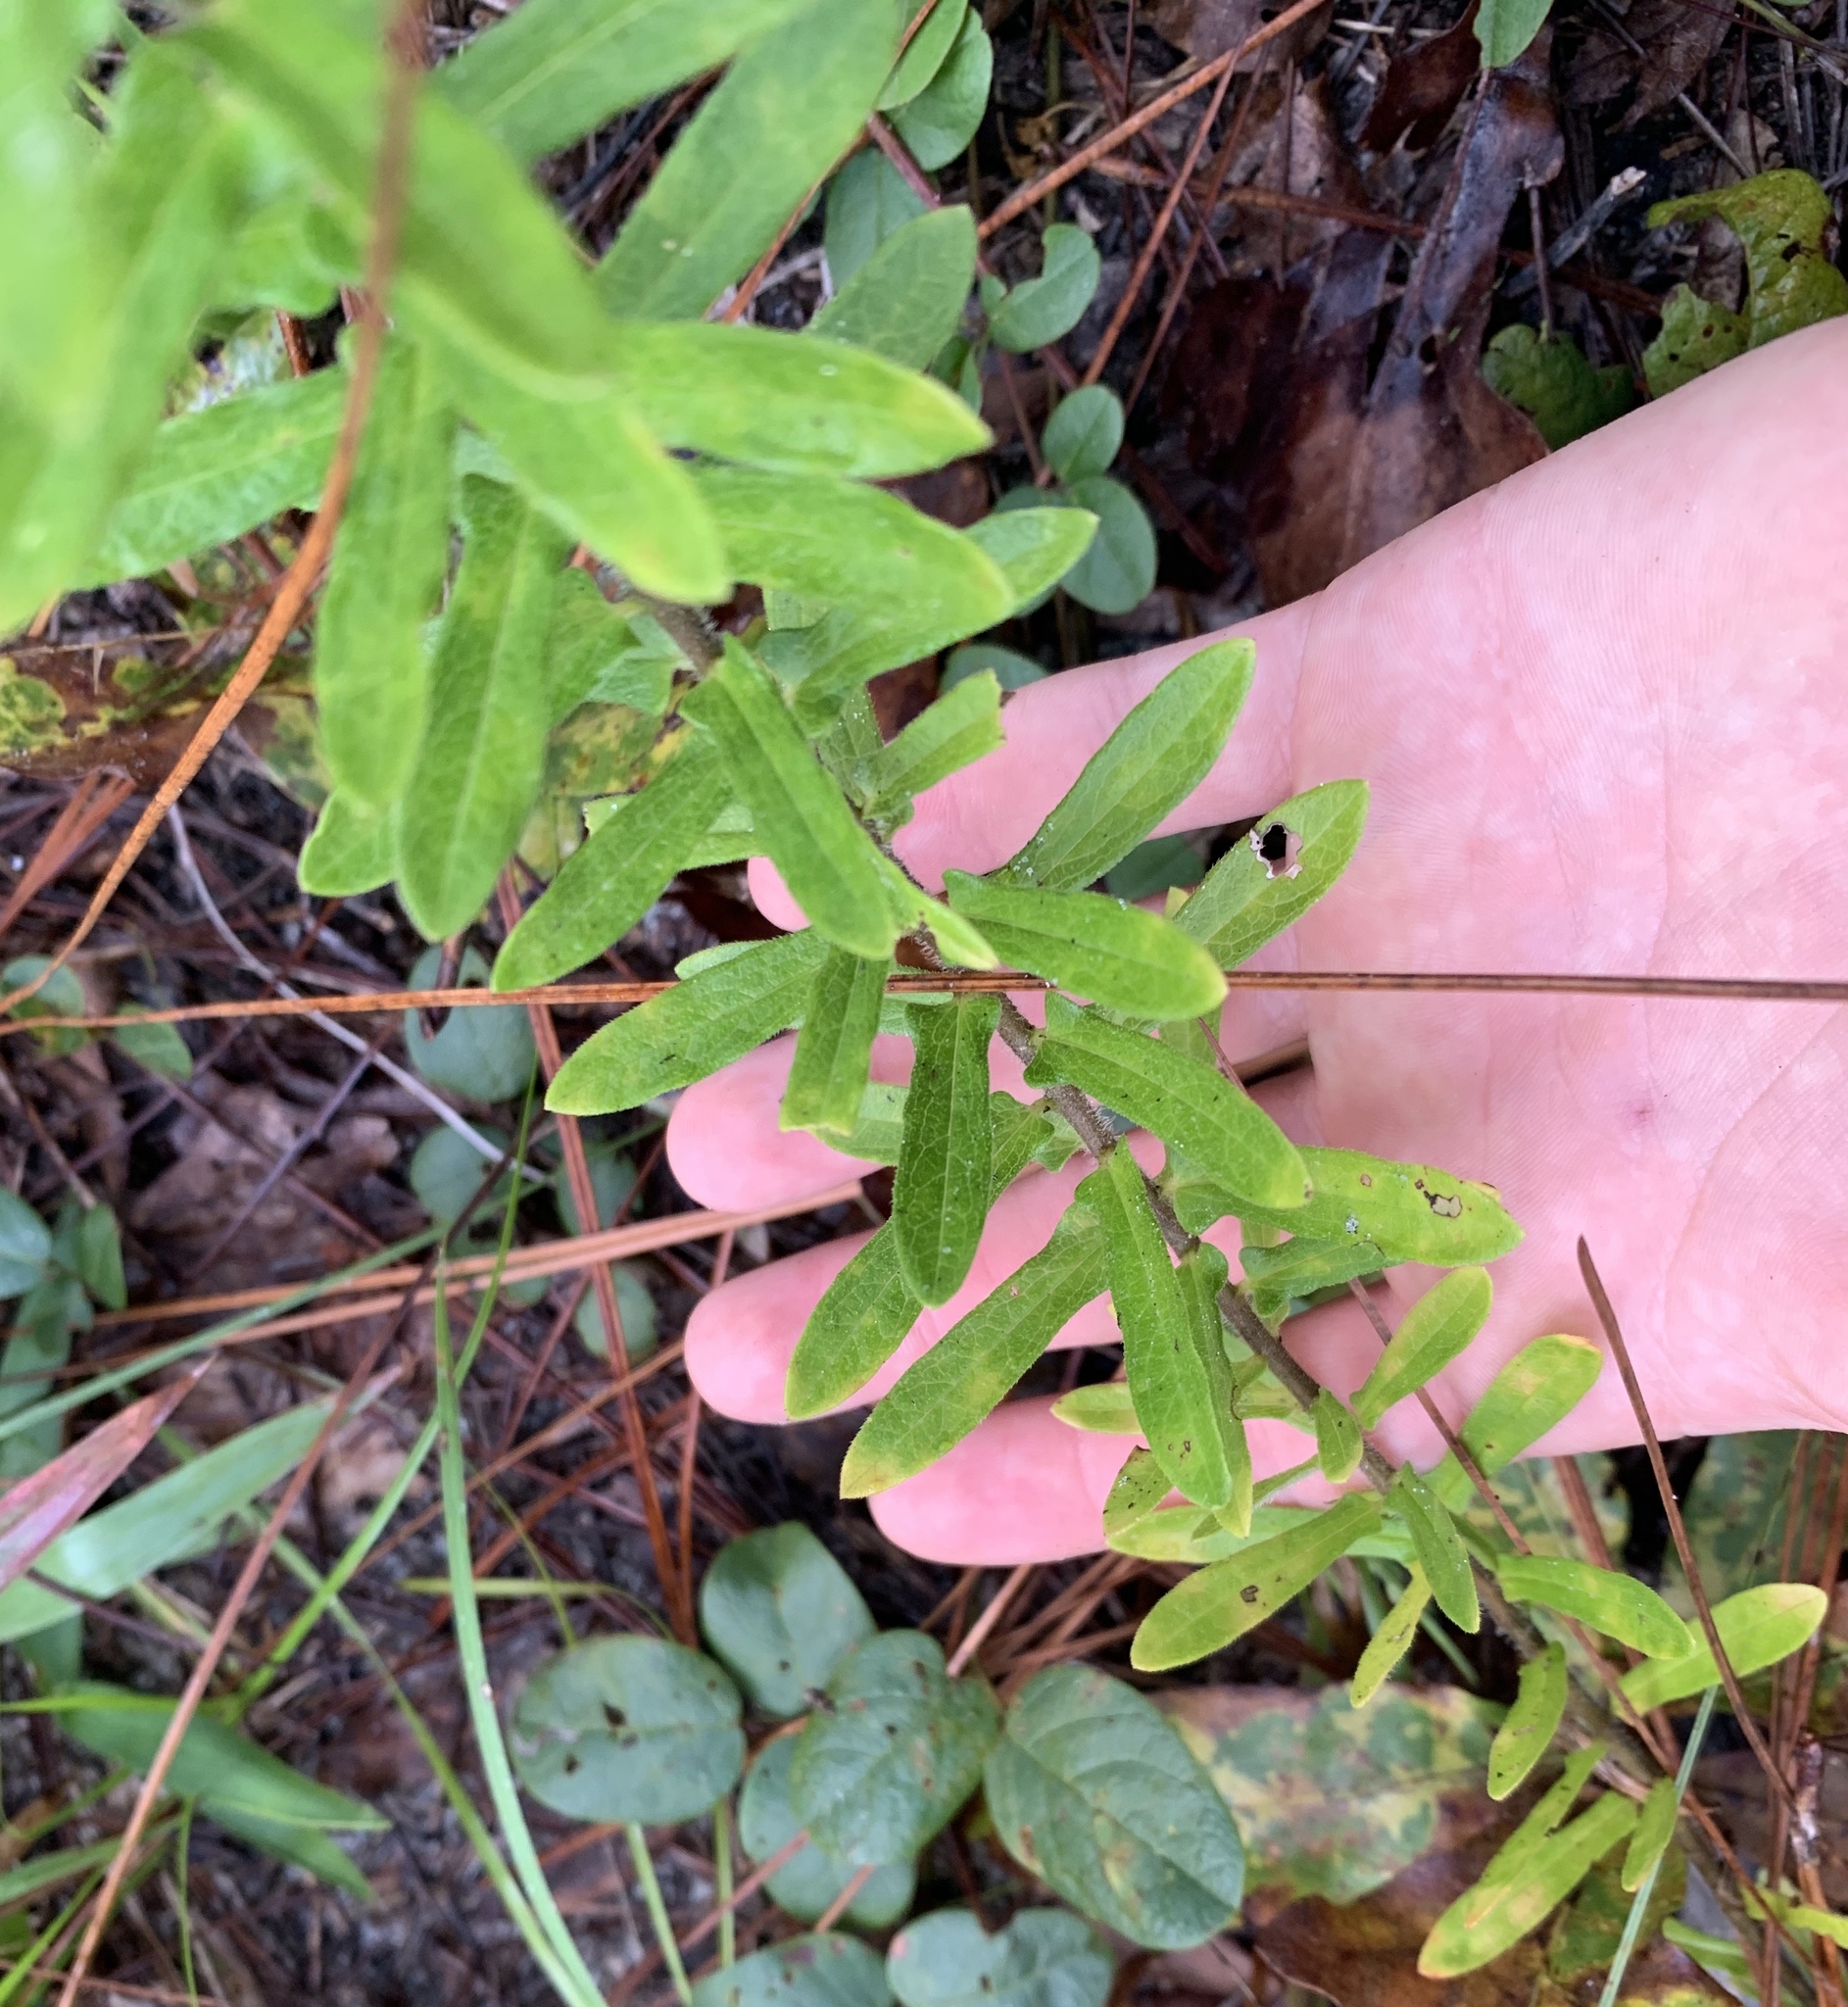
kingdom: Plantae
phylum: Tracheophyta
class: Magnoliopsida
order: Gentianales
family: Apocynaceae
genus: Asclepias
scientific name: Asclepias tuberosa
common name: Butterfly milkweed
